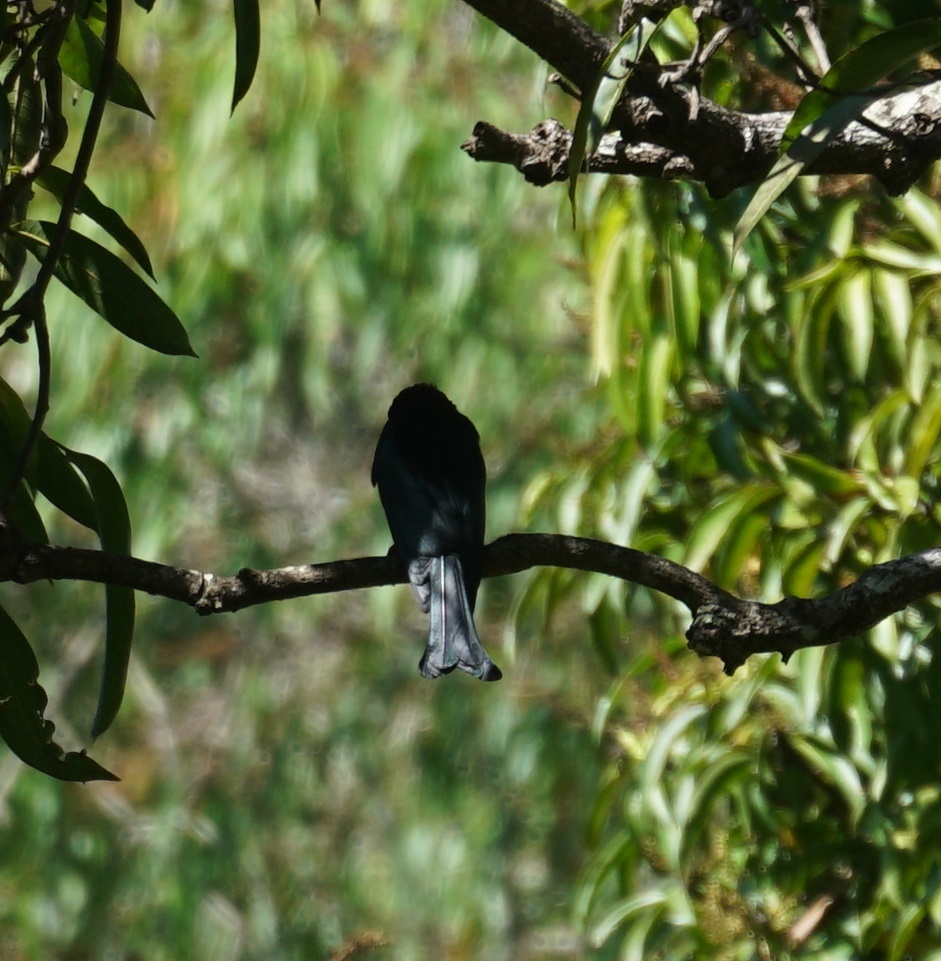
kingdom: Animalia
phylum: Chordata
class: Aves
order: Passeriformes
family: Dicruridae
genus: Dicrurus
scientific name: Dicrurus bracteatus
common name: Spangled drongo
